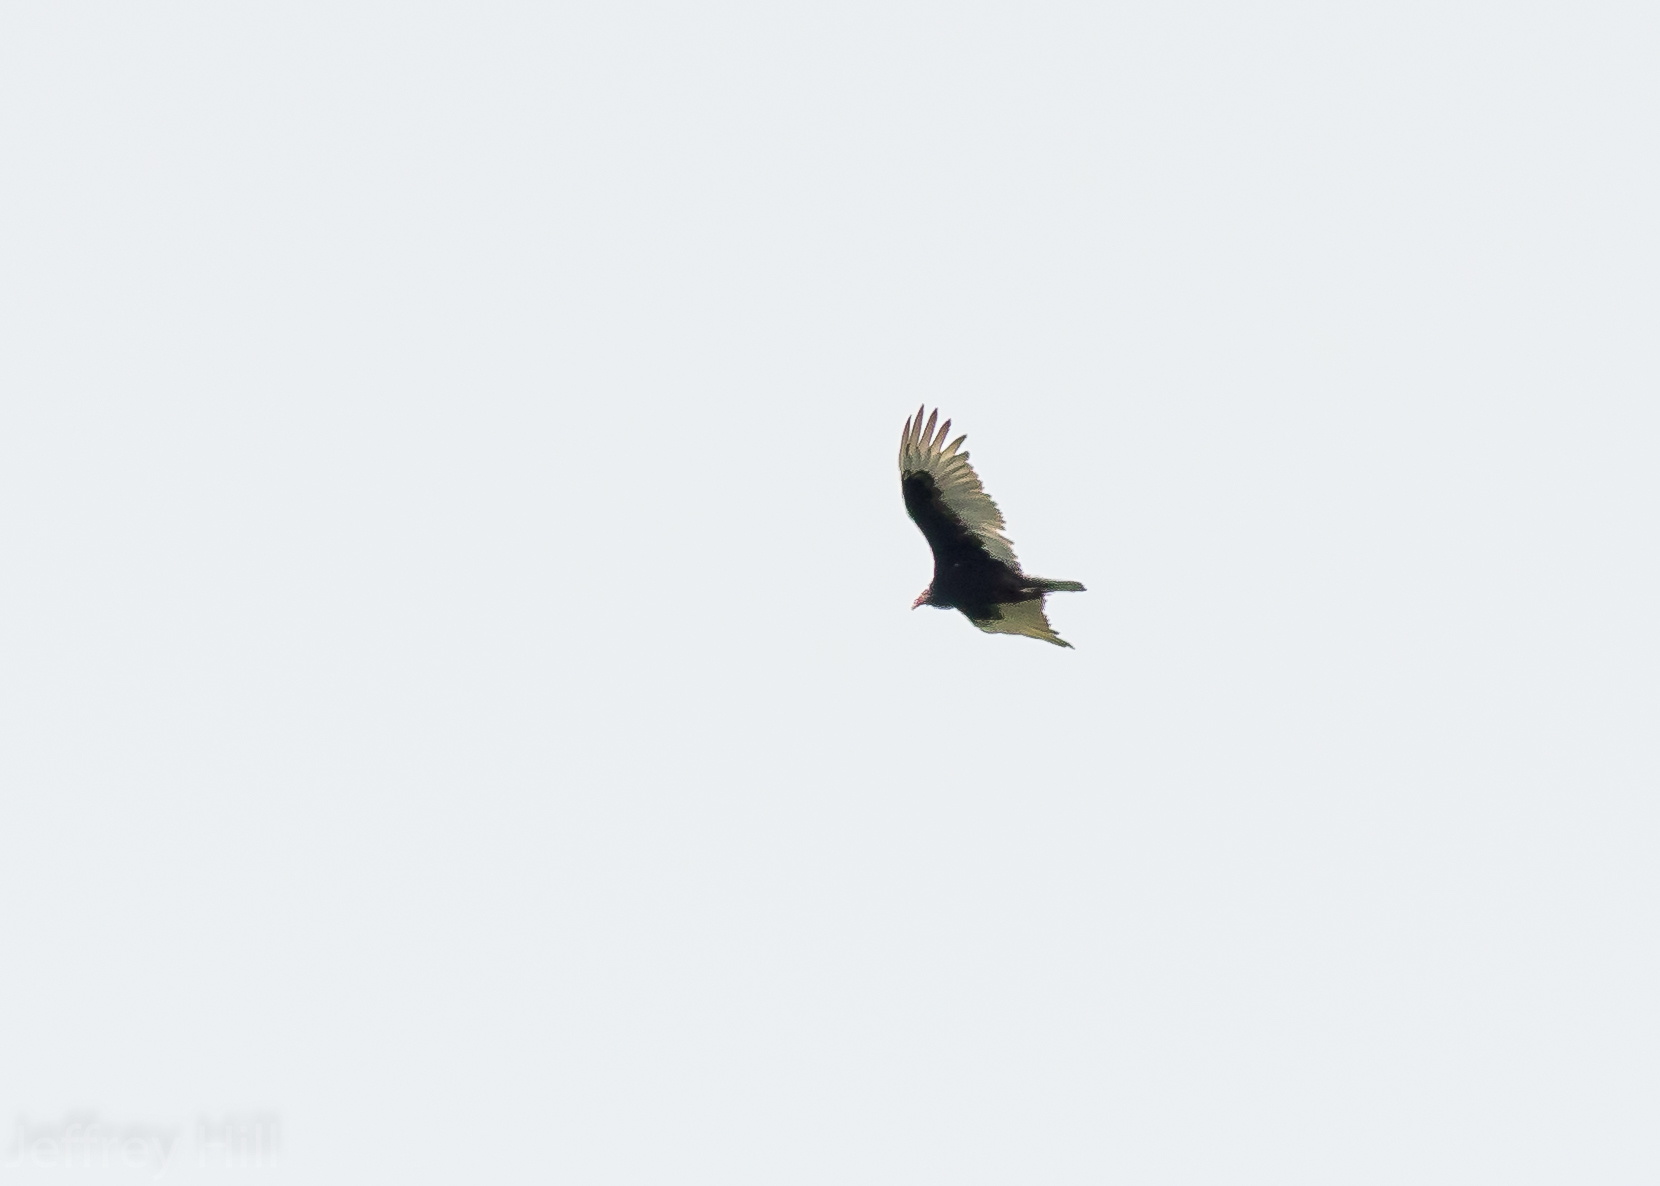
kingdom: Animalia
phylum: Chordata
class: Aves
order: Accipitriformes
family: Cathartidae
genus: Cathartes
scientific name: Cathartes aura
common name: Turkey vulture
